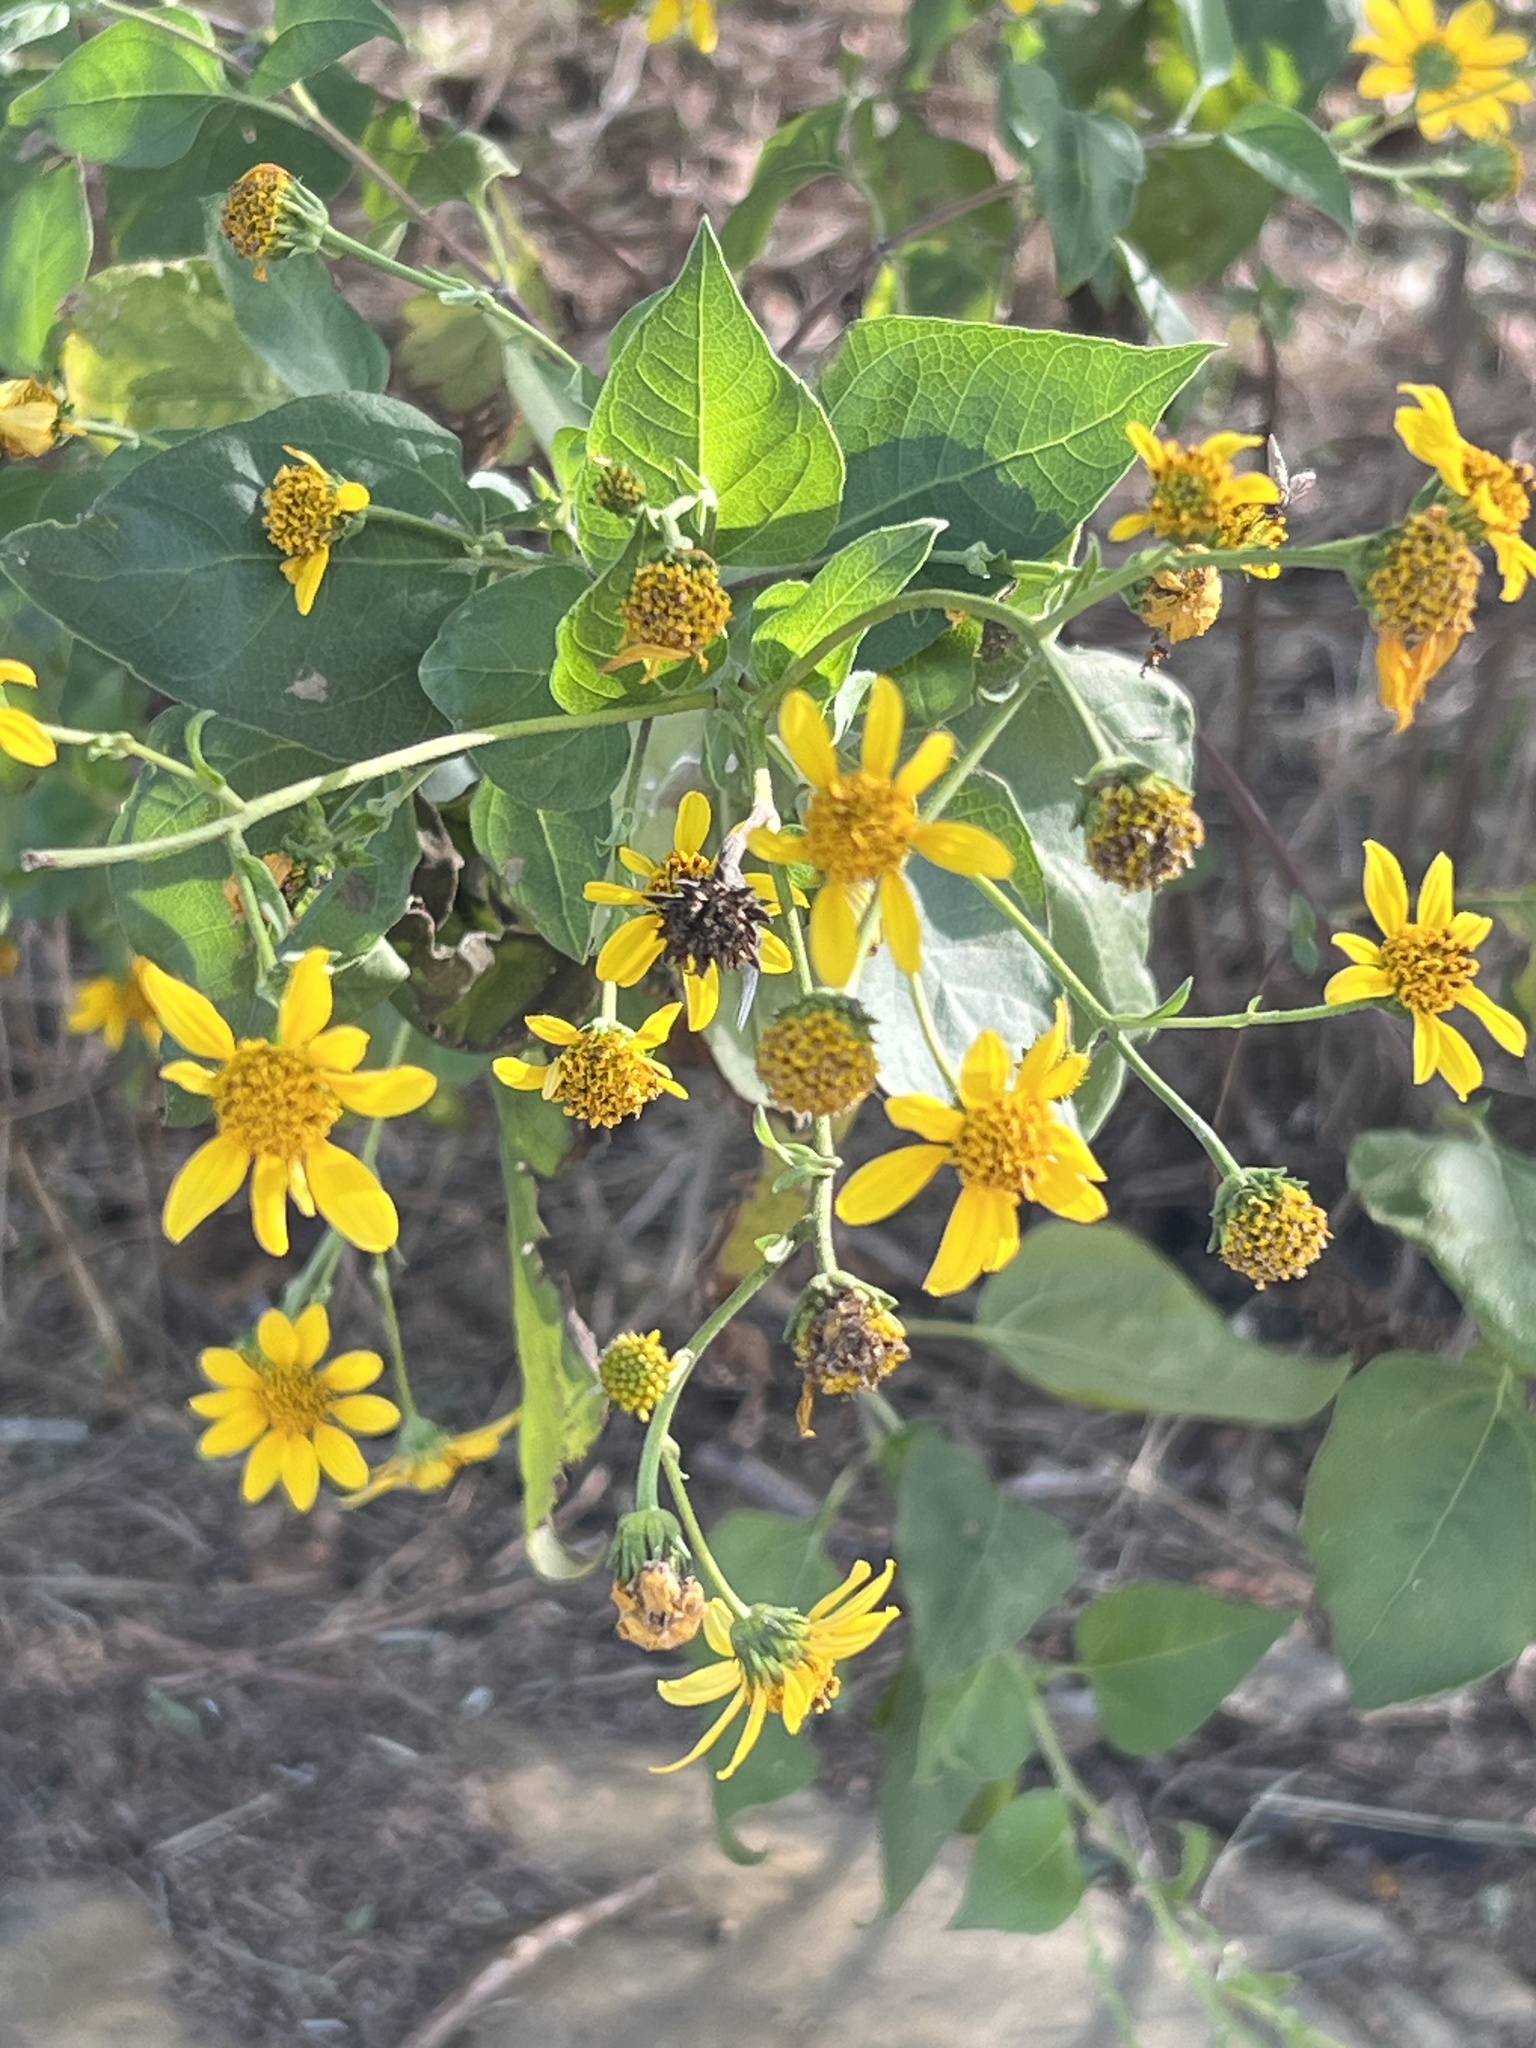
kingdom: Plantae
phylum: Tracheophyta
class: Magnoliopsida
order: Asterales
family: Asteraceae
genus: Viguiera
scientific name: Viguiera dentata
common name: Toothleaf
